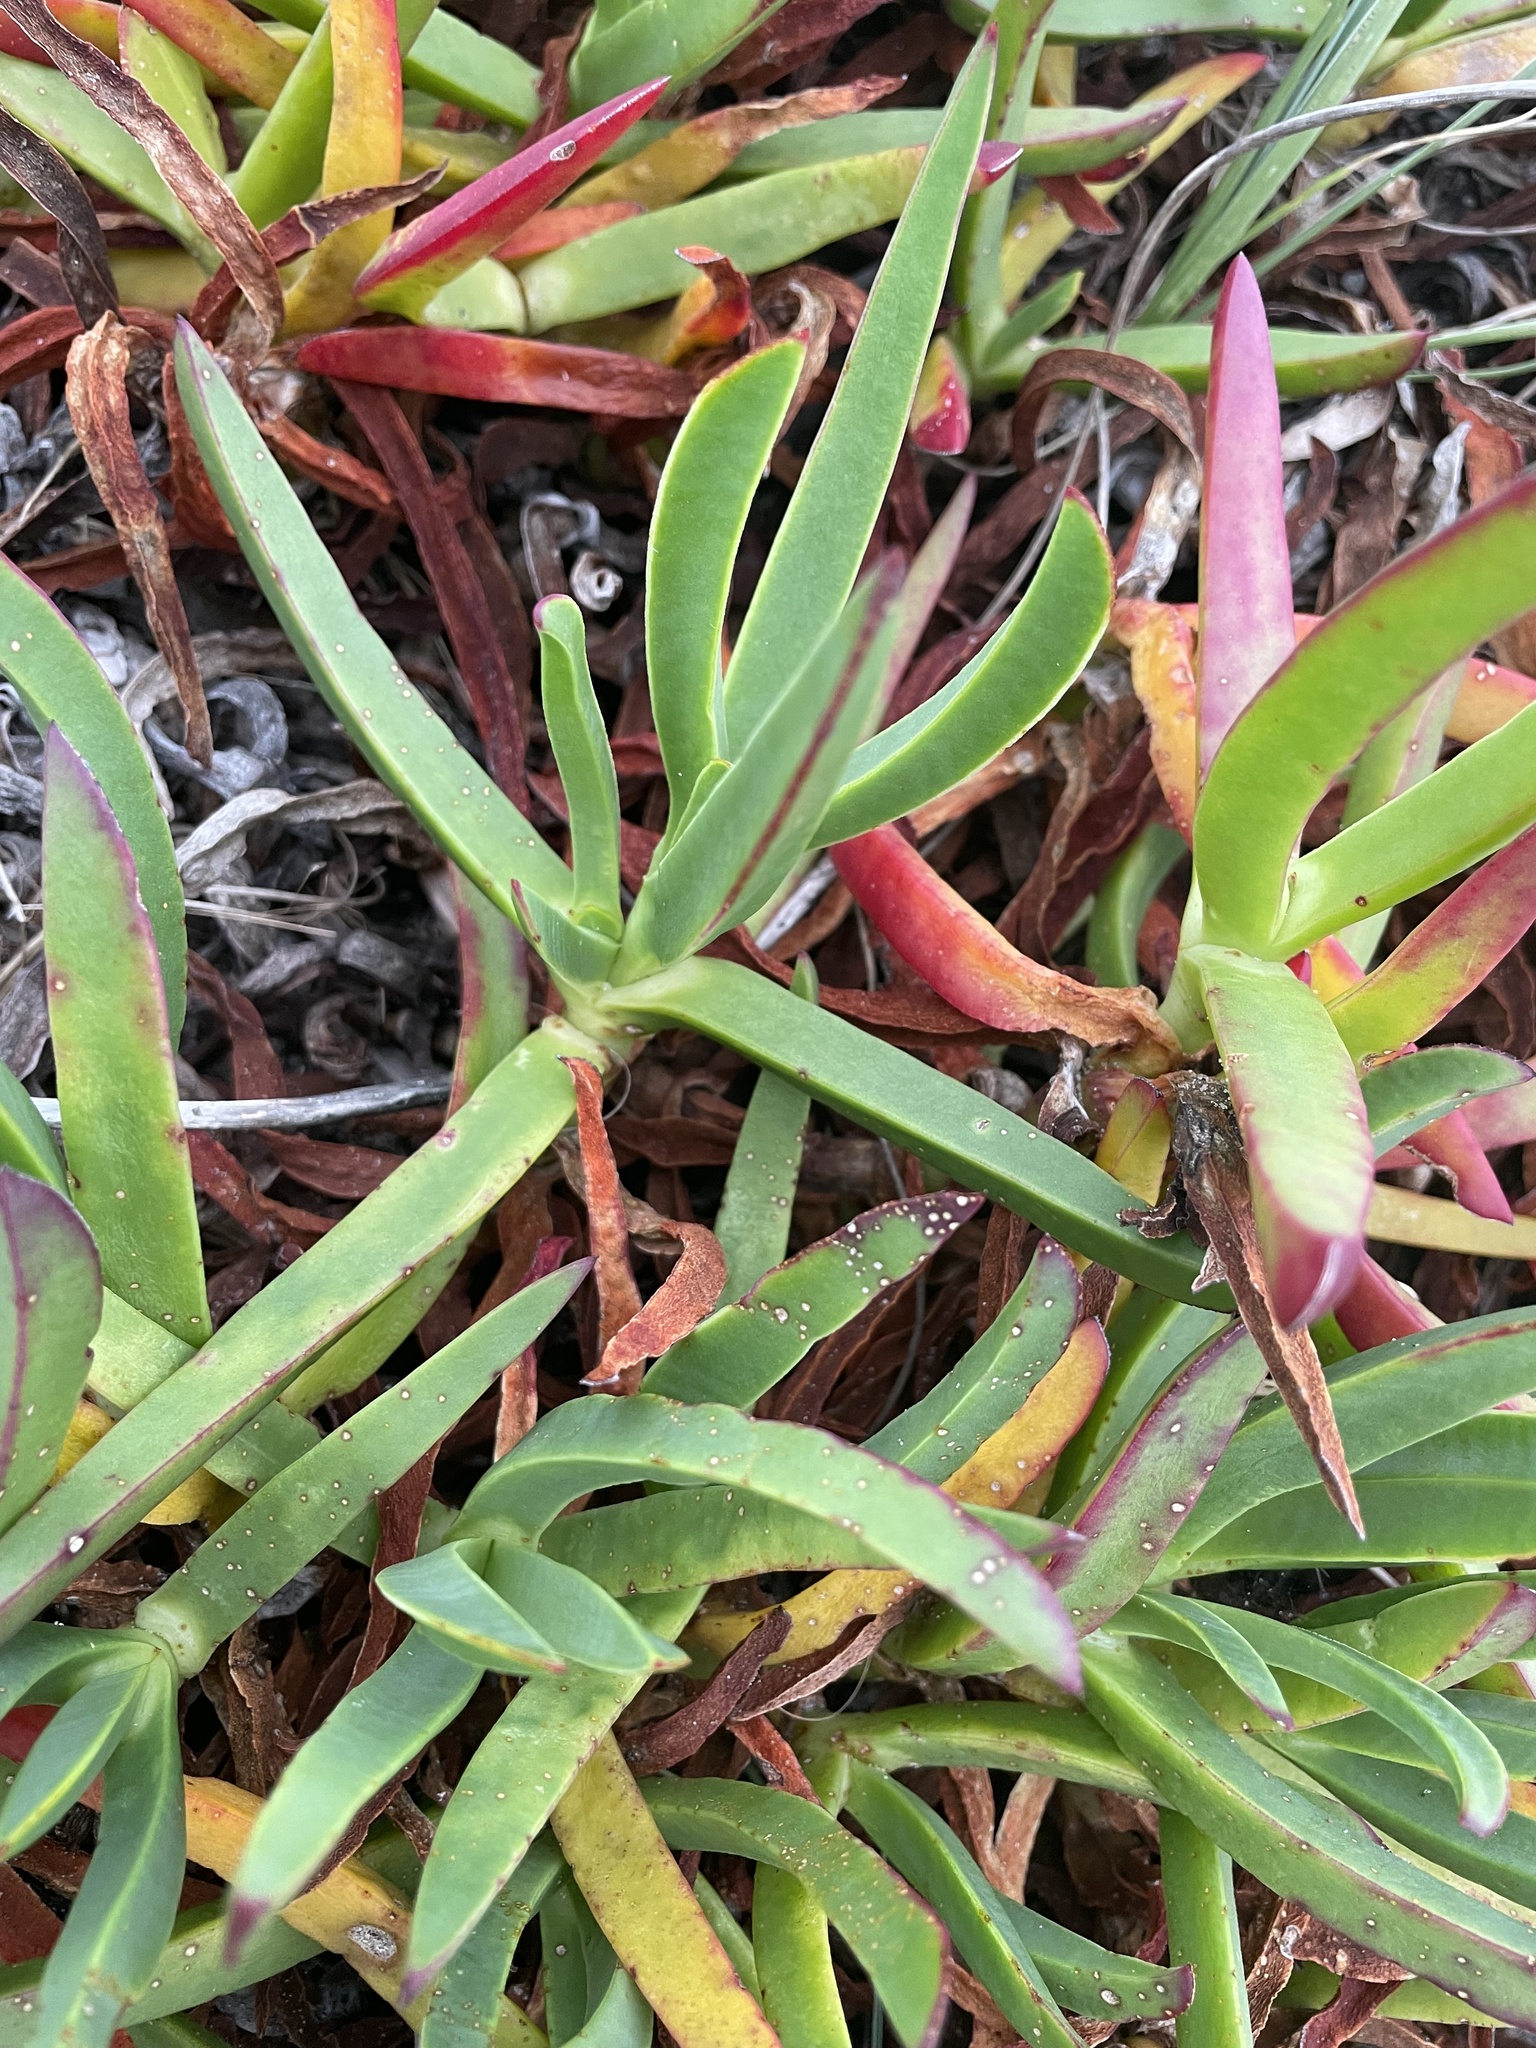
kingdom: Plantae
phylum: Tracheophyta
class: Magnoliopsida
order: Caryophyllales
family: Aizoaceae
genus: Carpobrotus
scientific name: Carpobrotus edulis
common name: Hottentot-fig
